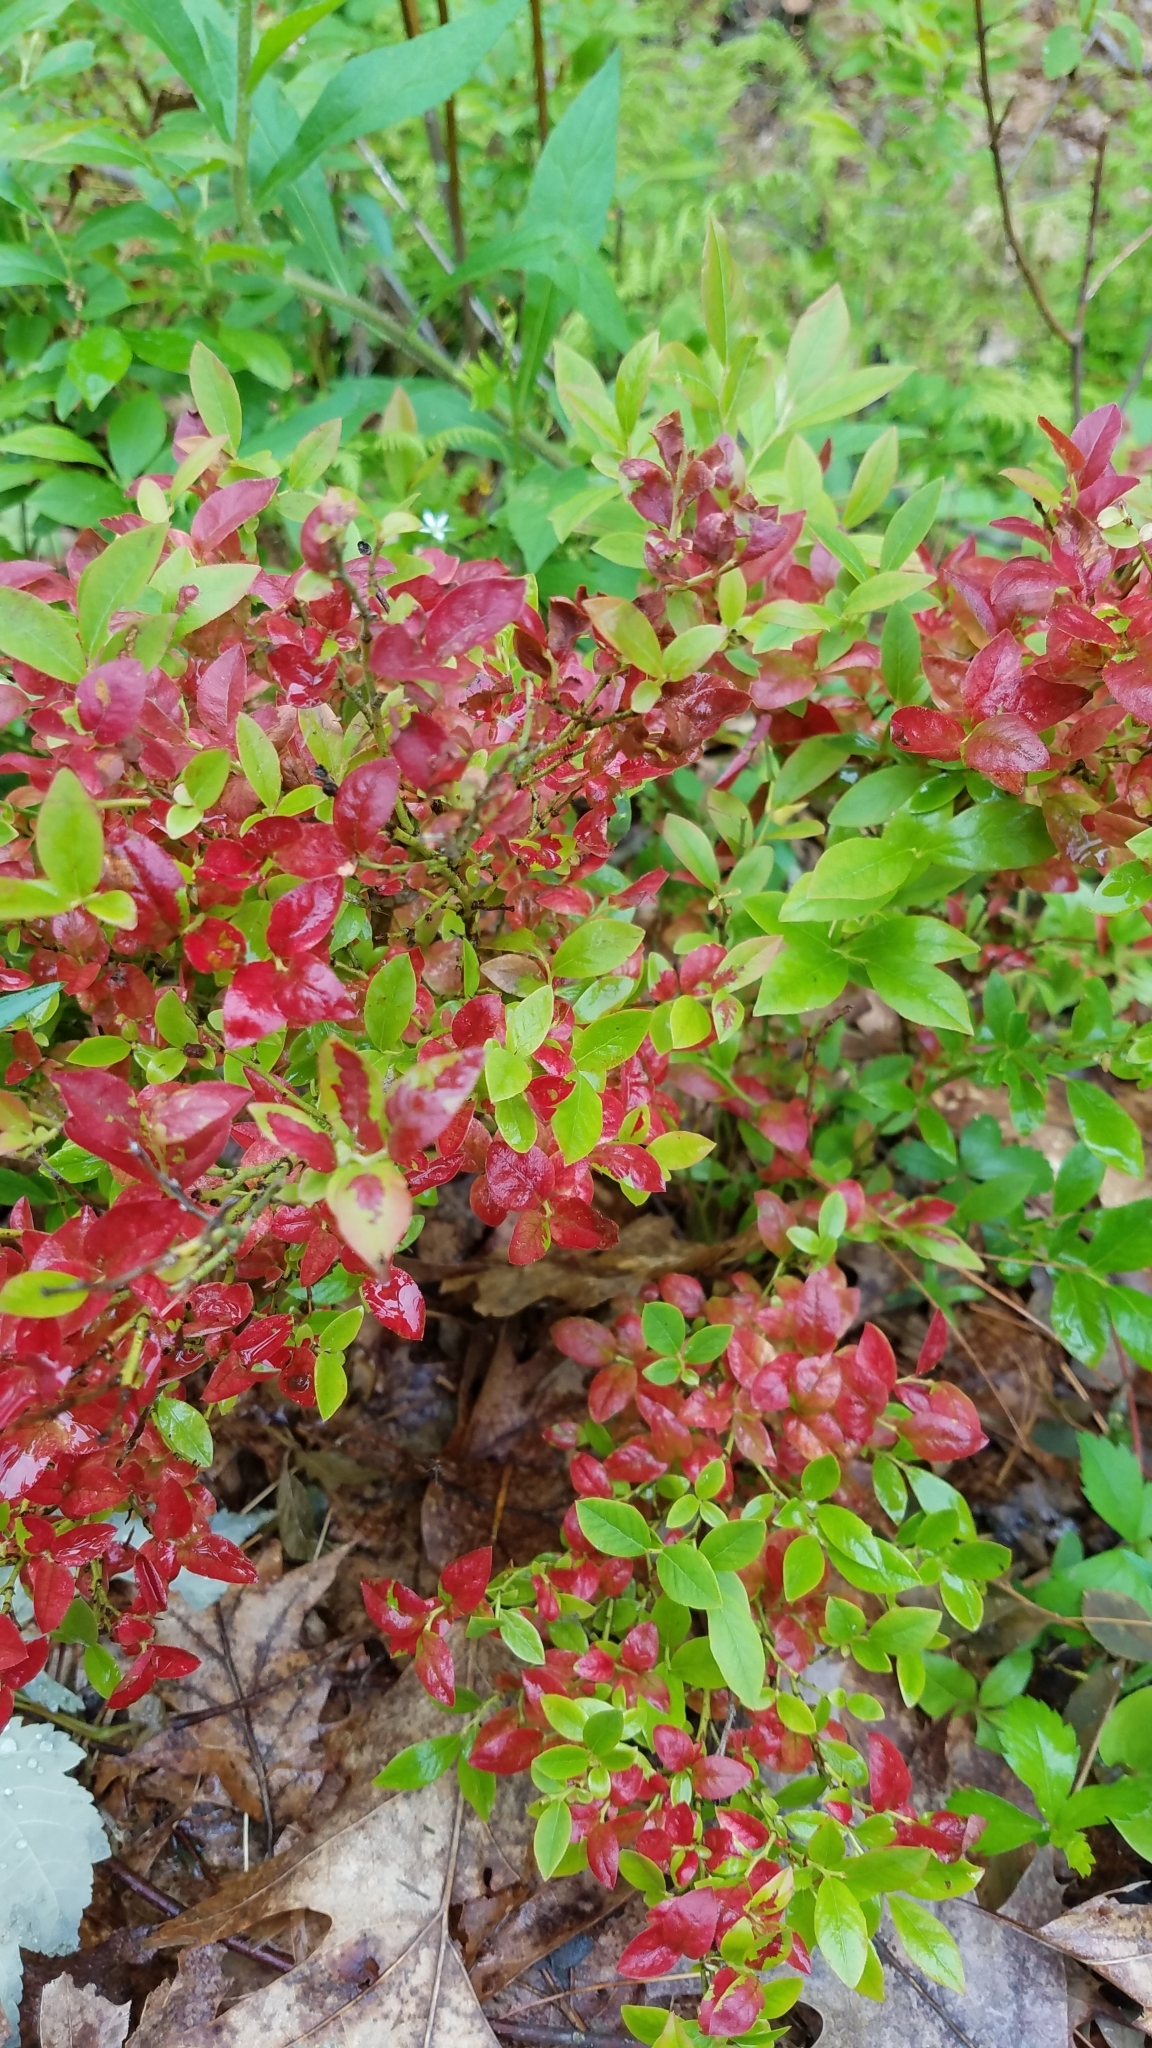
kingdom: Plantae
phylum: Tracheophyta
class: Magnoliopsida
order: Ericales
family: Ericaceae
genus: Vaccinium
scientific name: Vaccinium angustifolium
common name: Early lowbush blueberry
